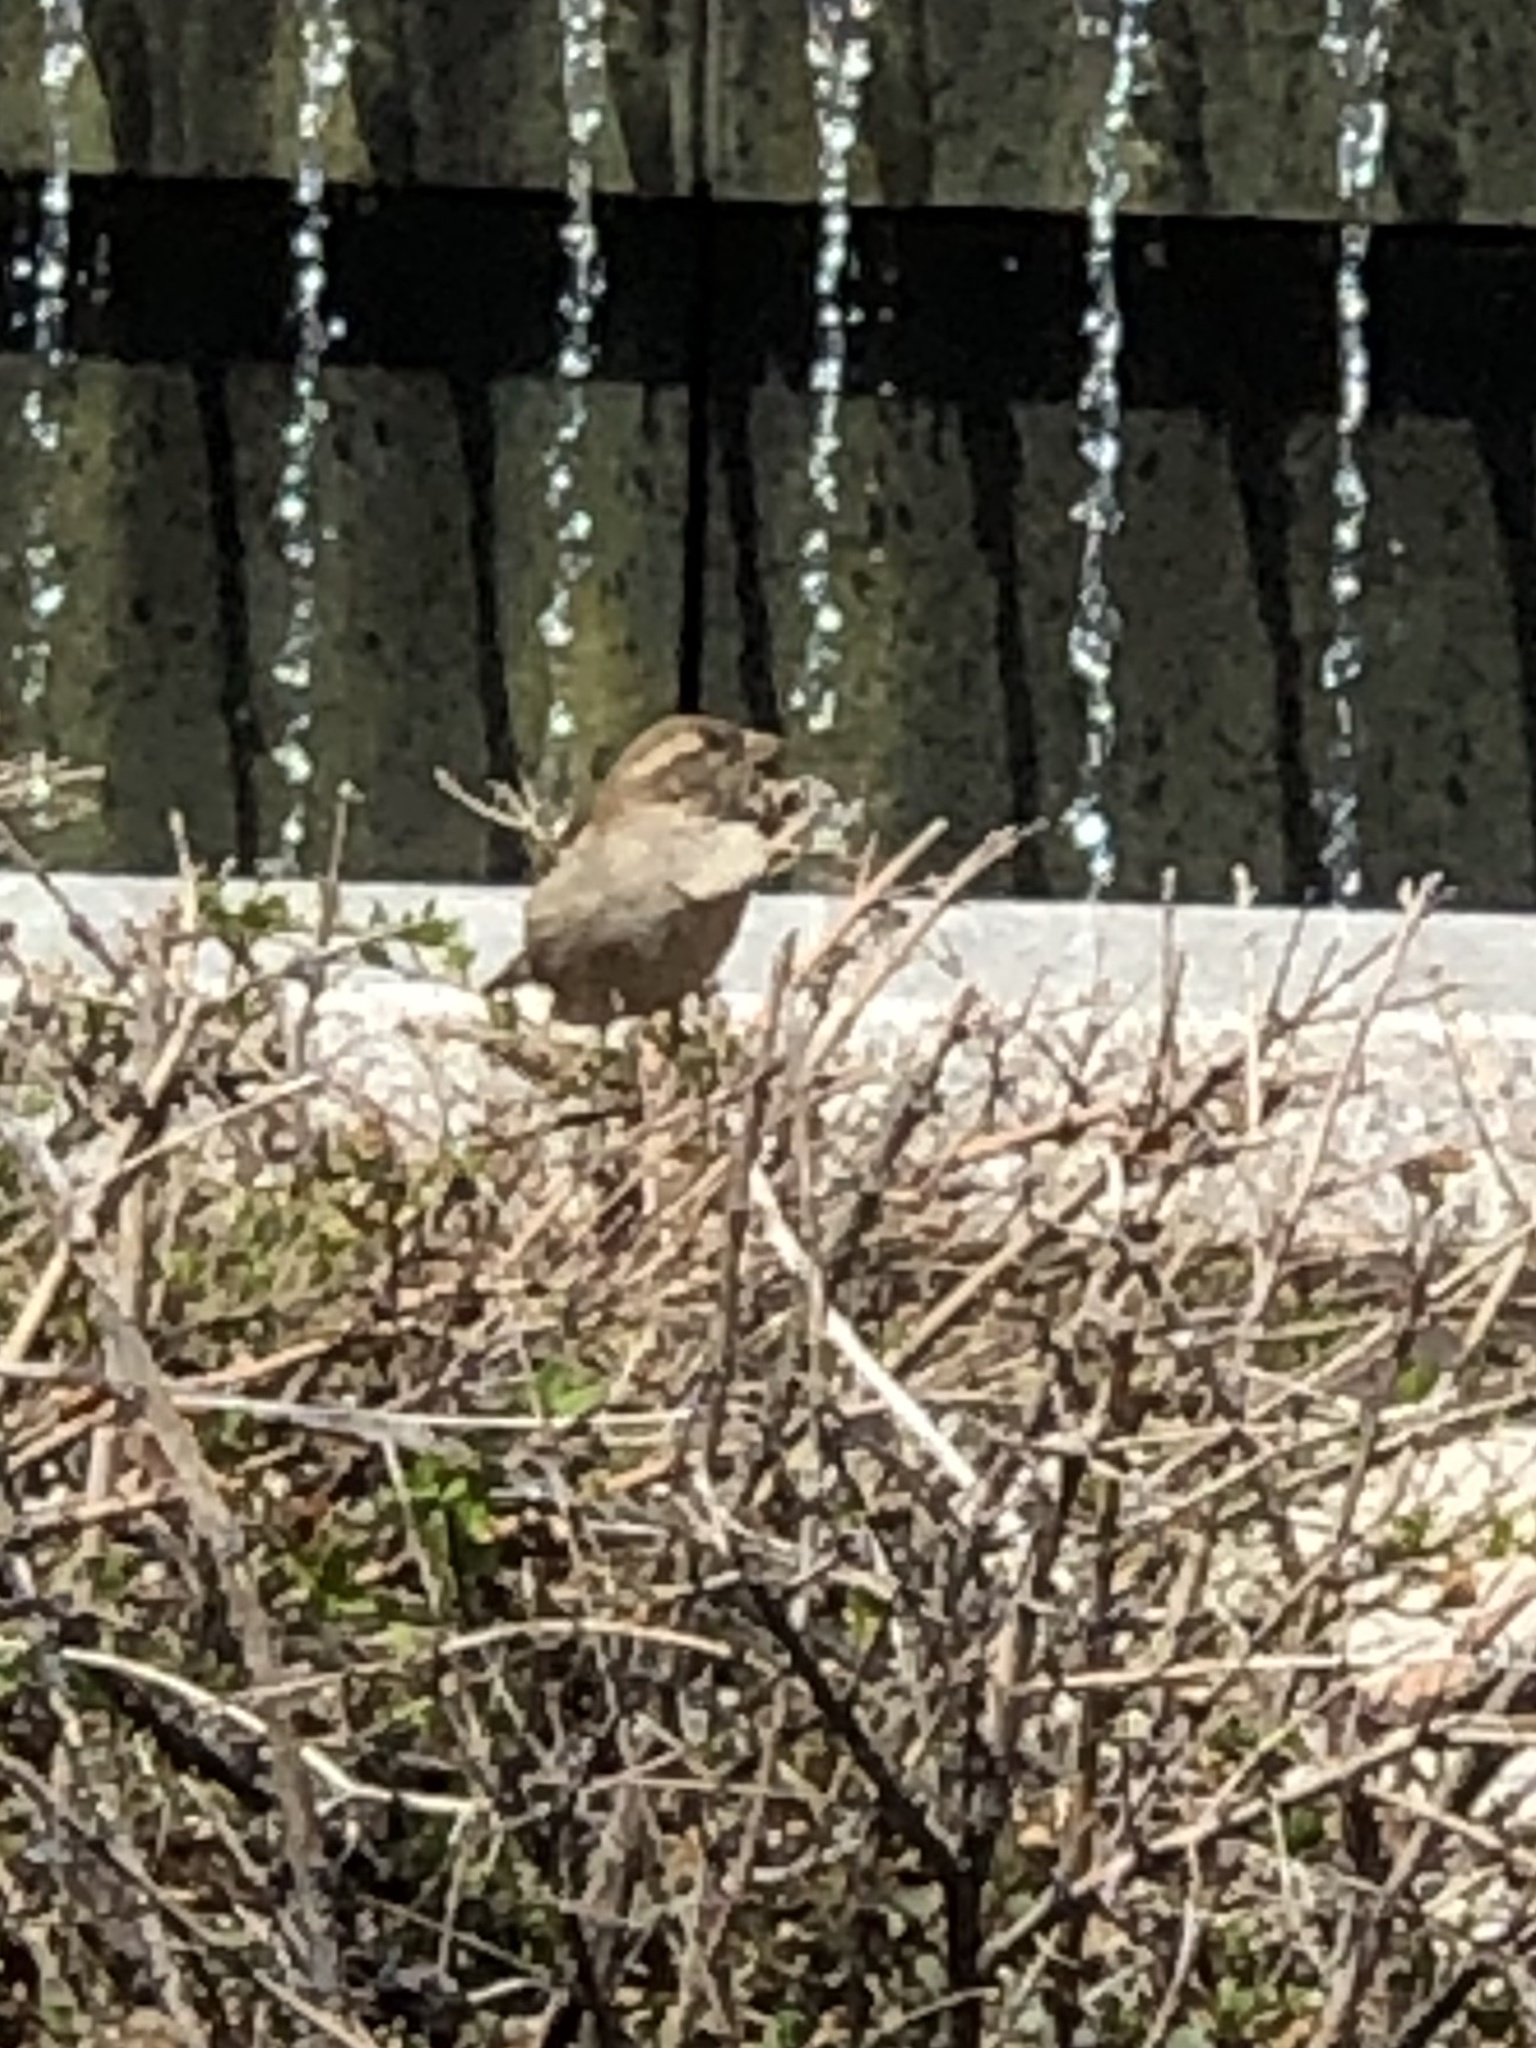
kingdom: Animalia
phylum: Chordata
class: Aves
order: Passeriformes
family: Passeridae
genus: Passer
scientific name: Passer domesticus
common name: House sparrow
